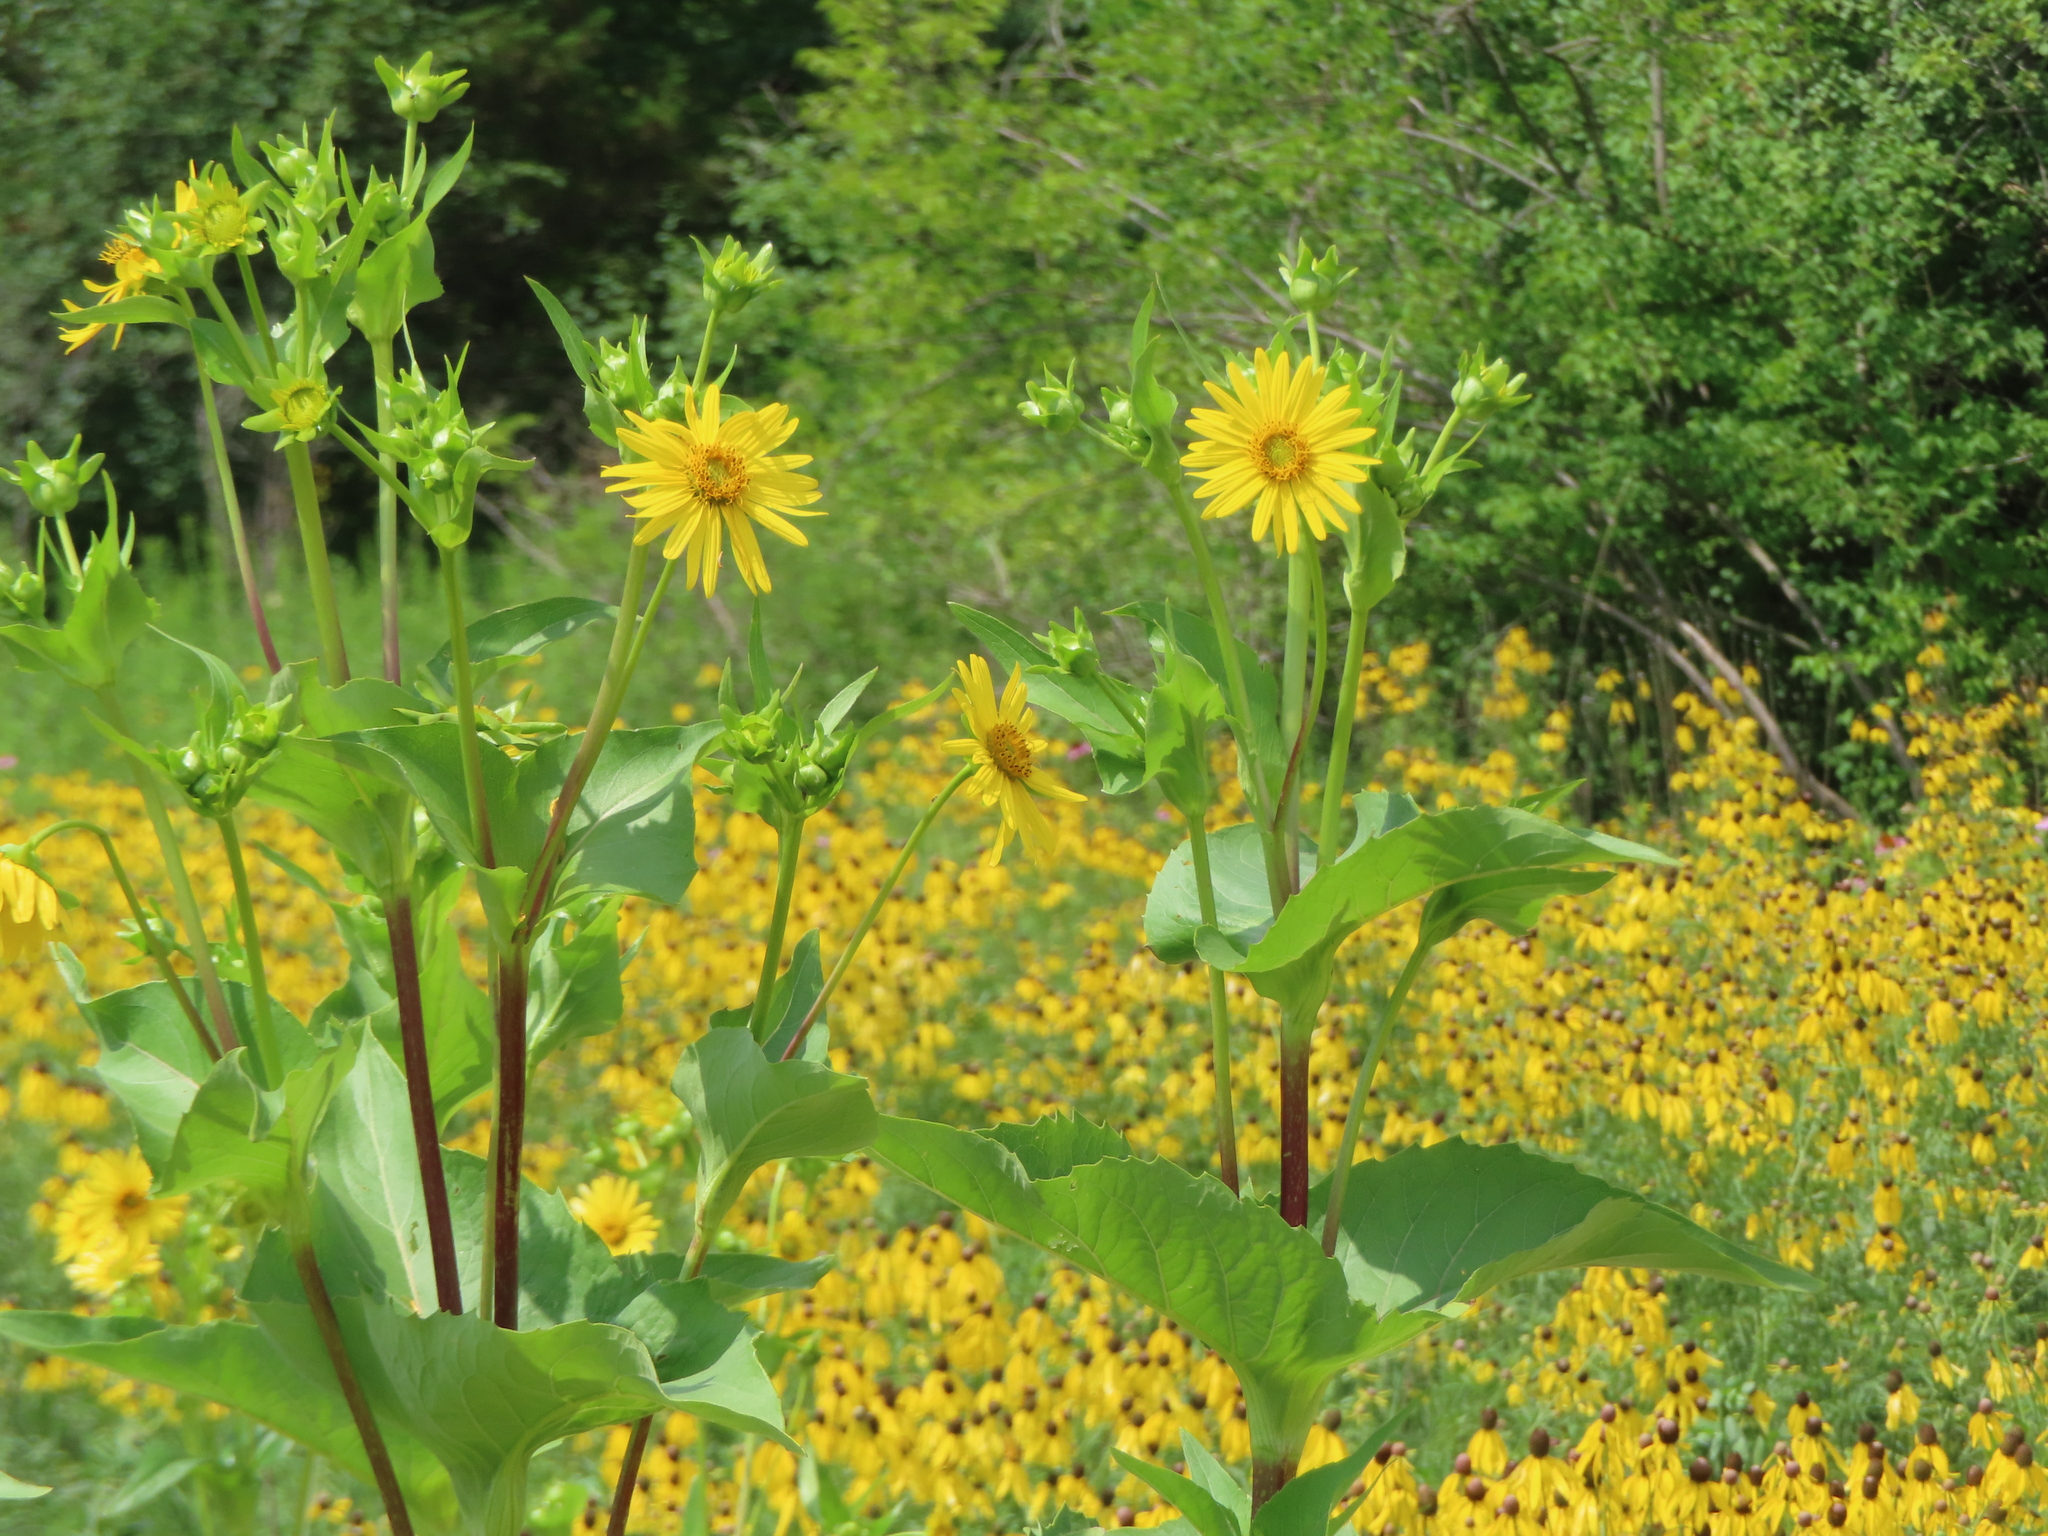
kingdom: Plantae
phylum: Tracheophyta
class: Magnoliopsida
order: Asterales
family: Asteraceae
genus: Silphium
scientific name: Silphium perfoliatum
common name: Cup-plant
